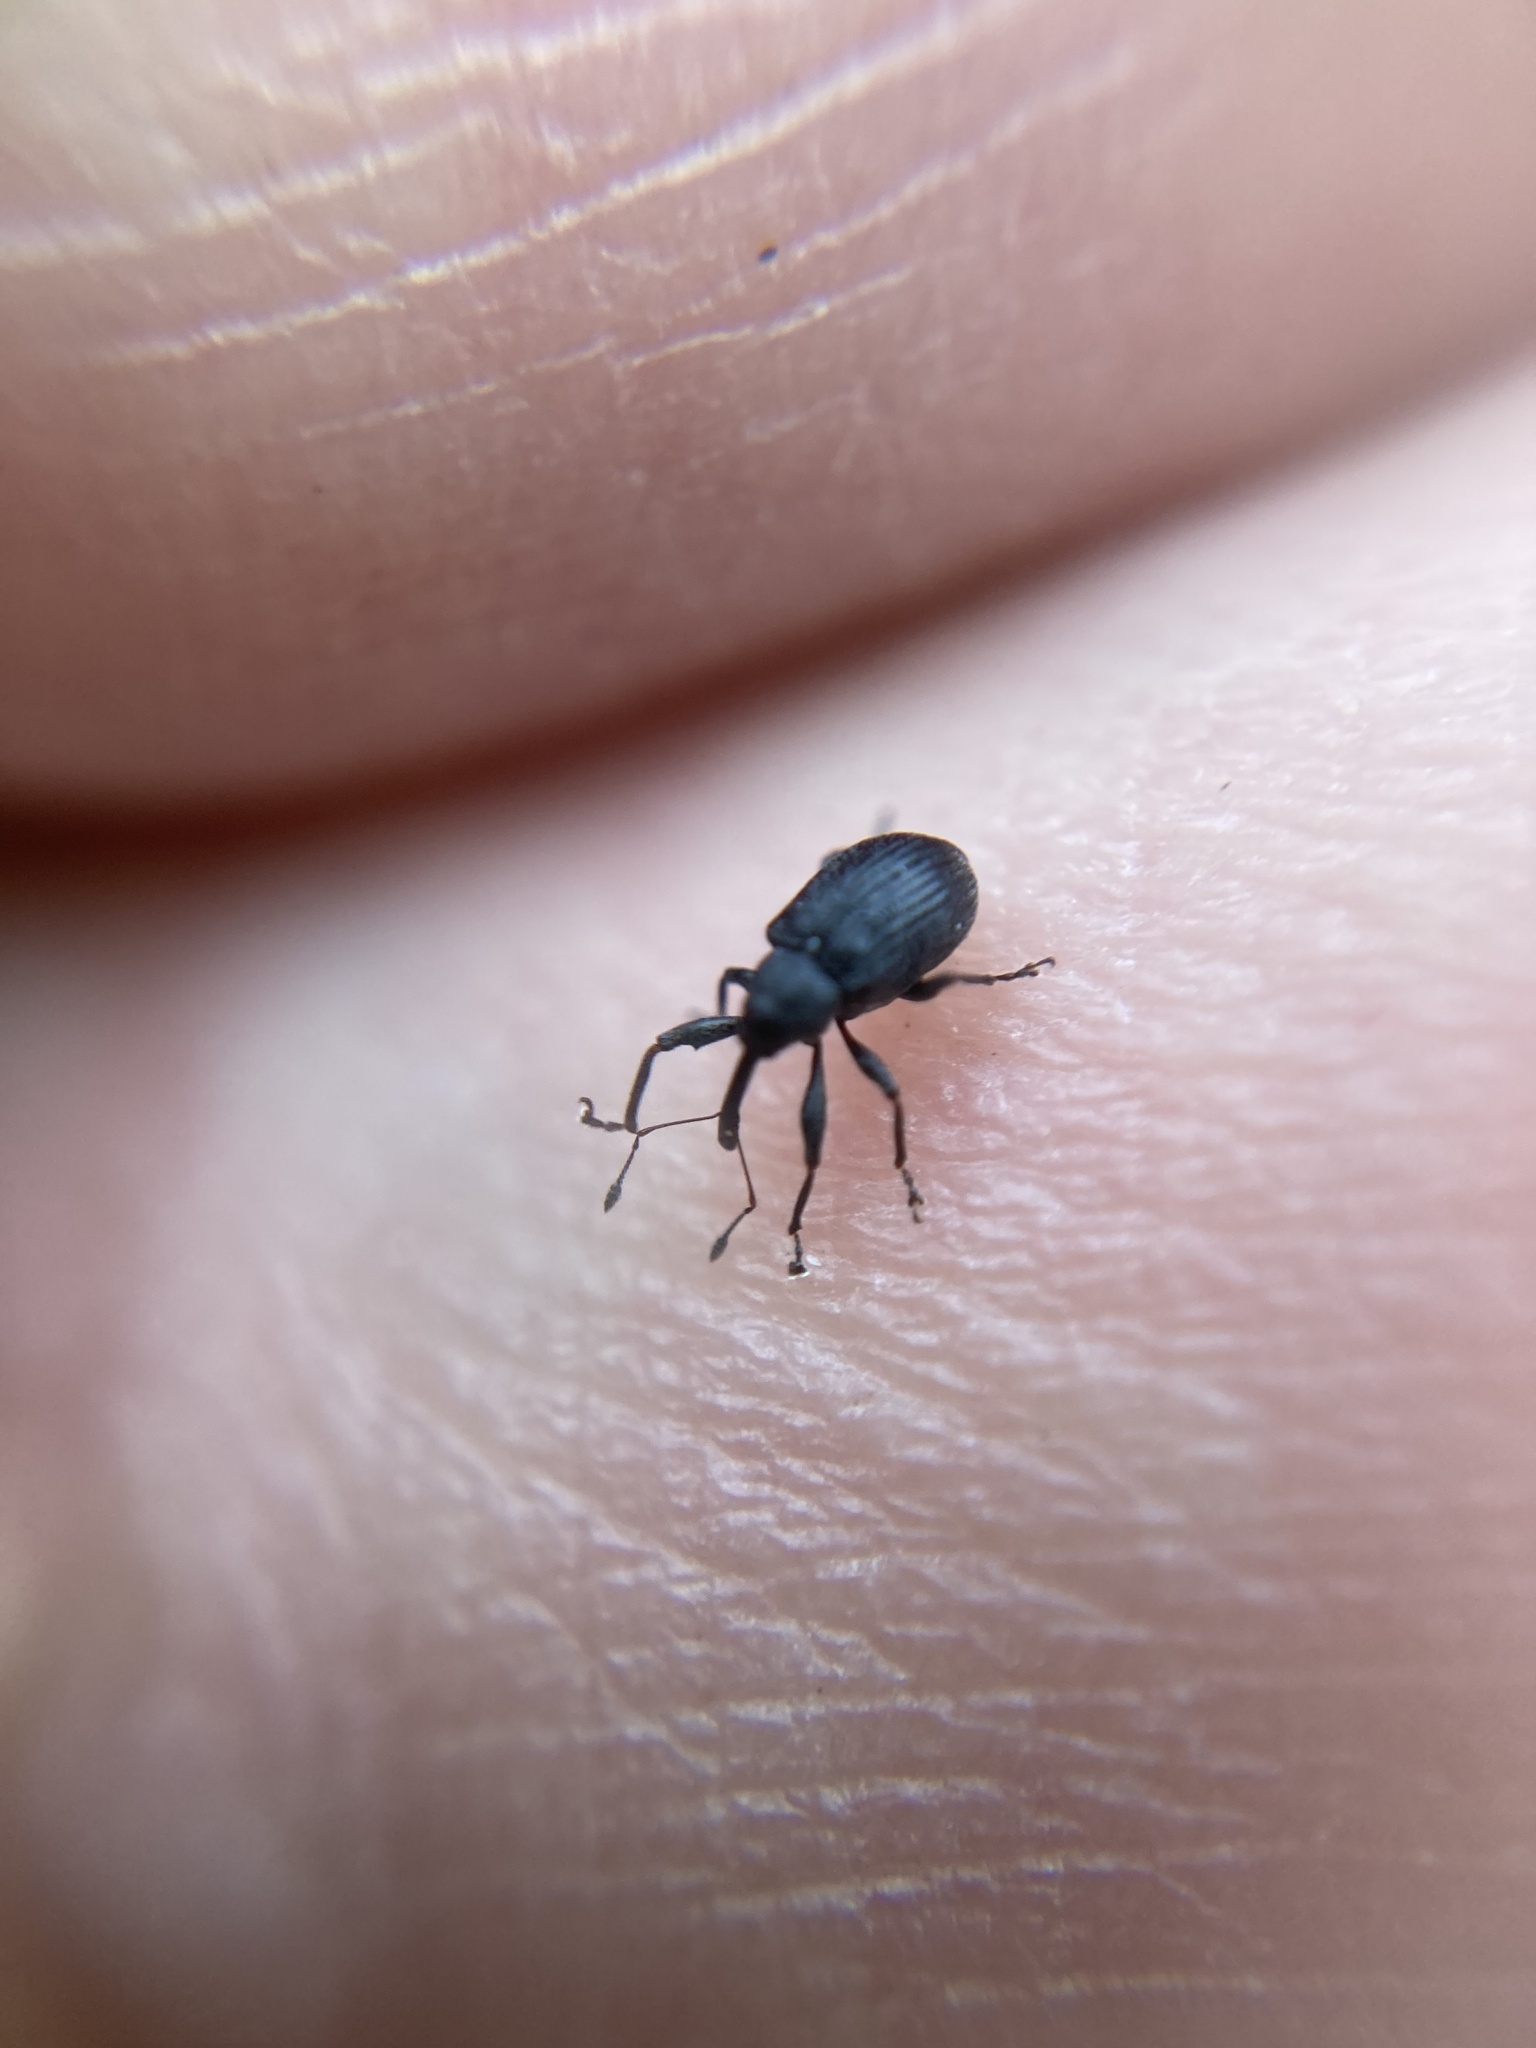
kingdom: Animalia
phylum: Arthropoda
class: Insecta
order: Coleoptera
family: Curculionidae
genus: Anthonomus
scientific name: Anthonomus rubi
